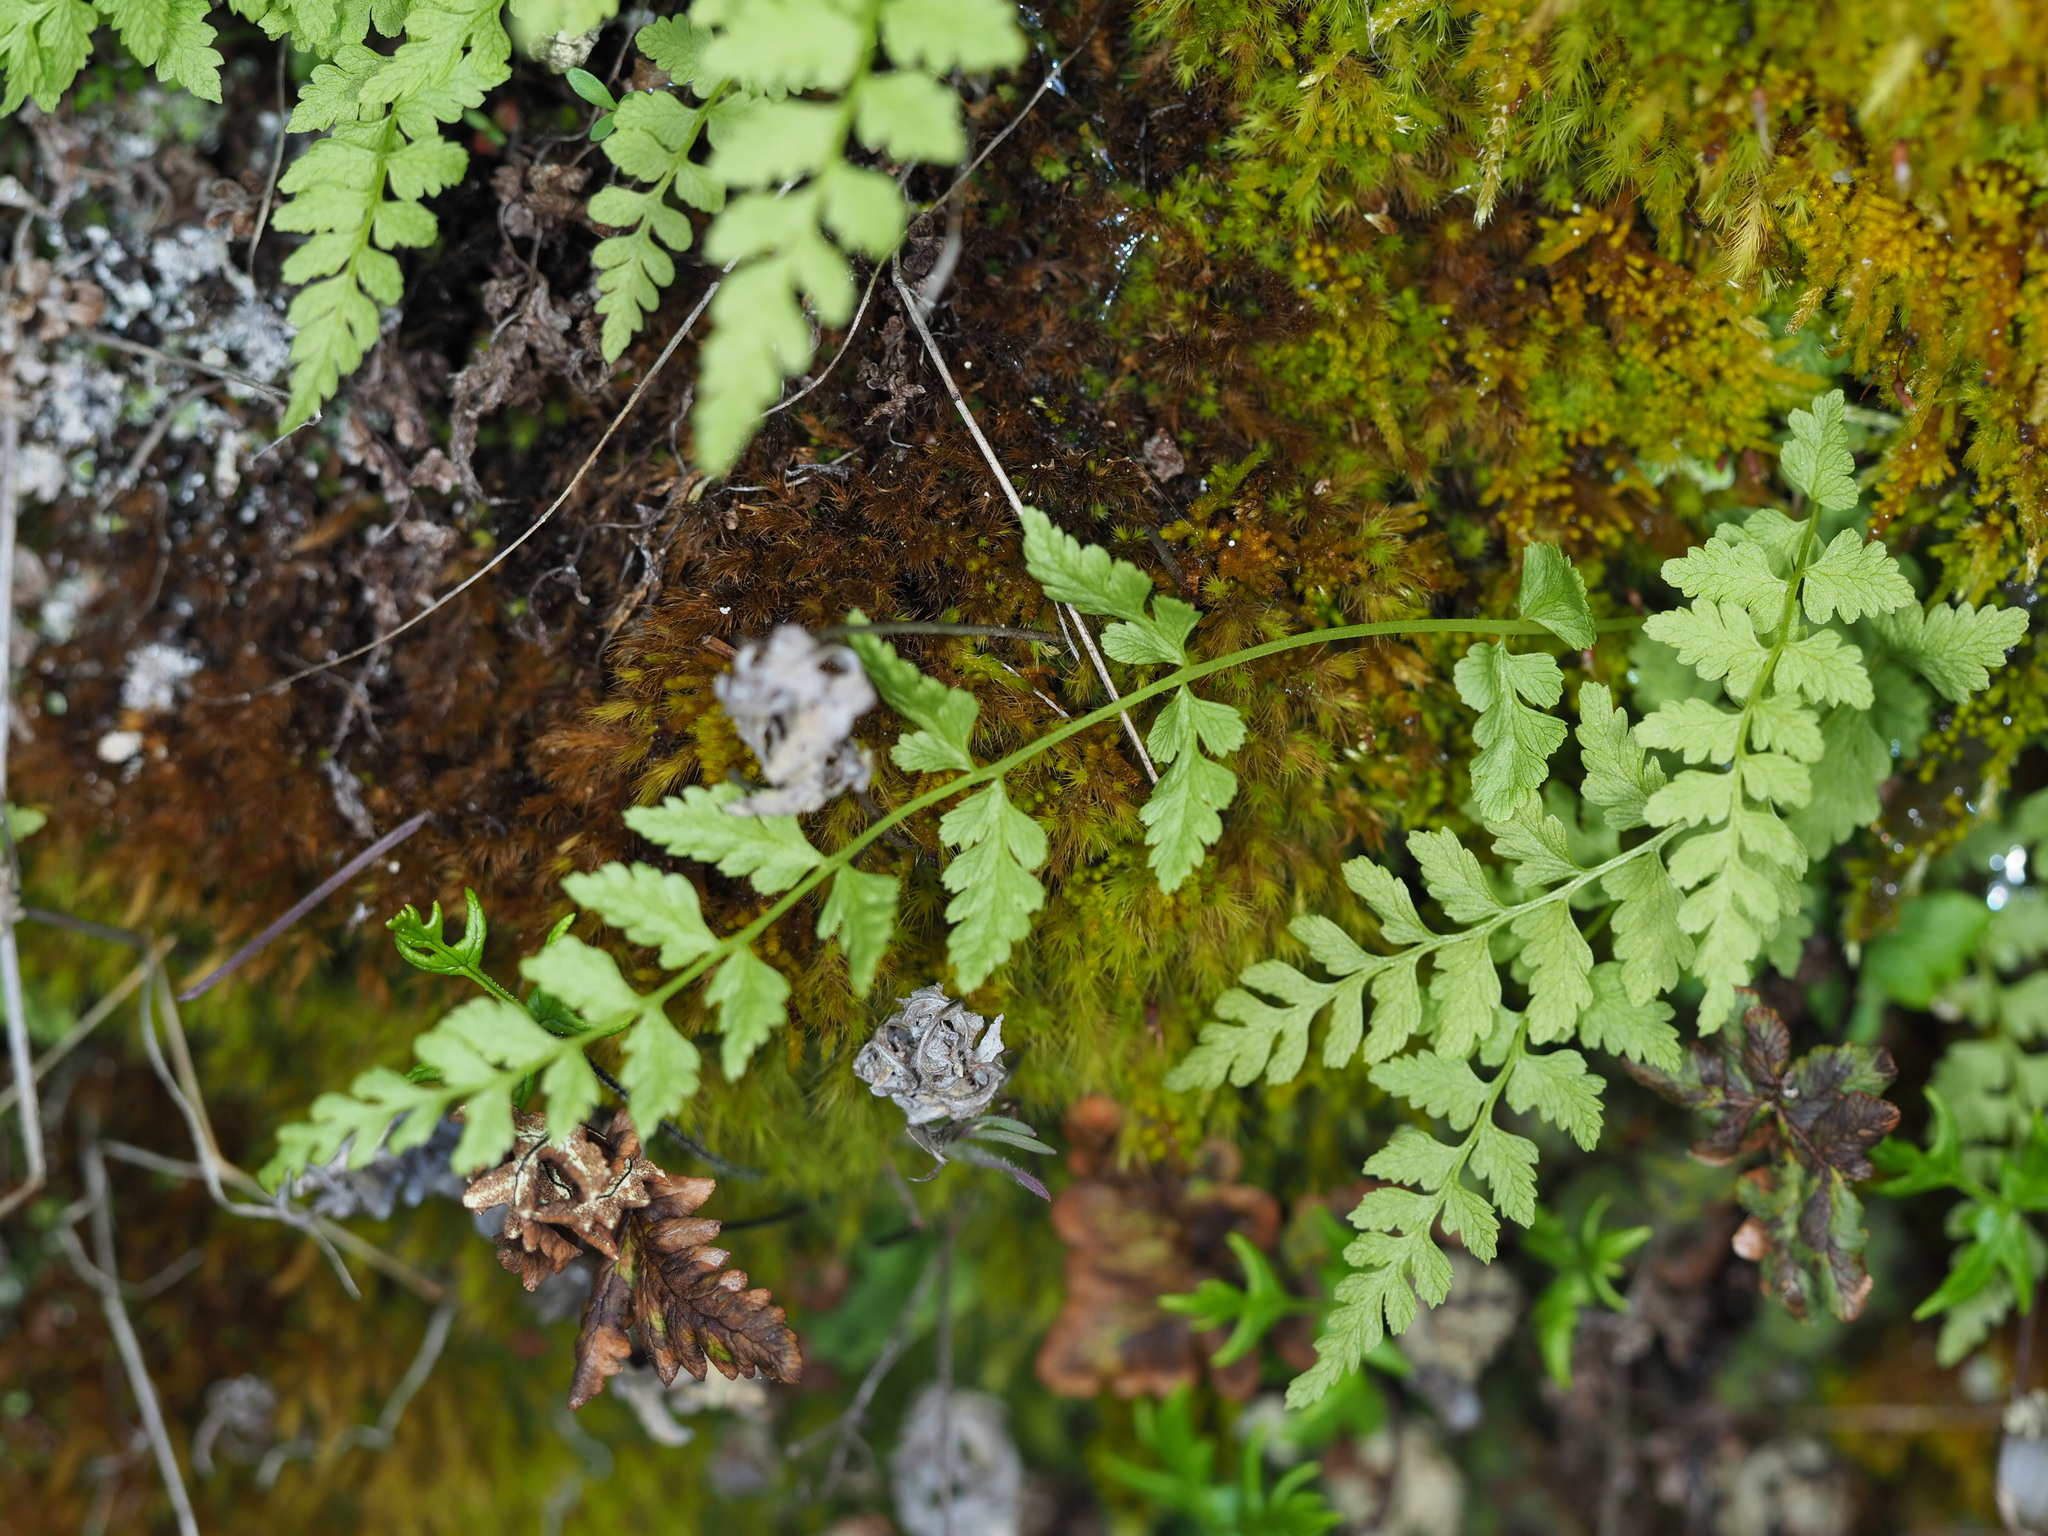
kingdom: Plantae
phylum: Tracheophyta
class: Polypodiopsida
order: Polypodiales
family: Cystopteridaceae
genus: Cystopteris
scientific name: Cystopteris fragilis
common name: Brittle bladder fern
